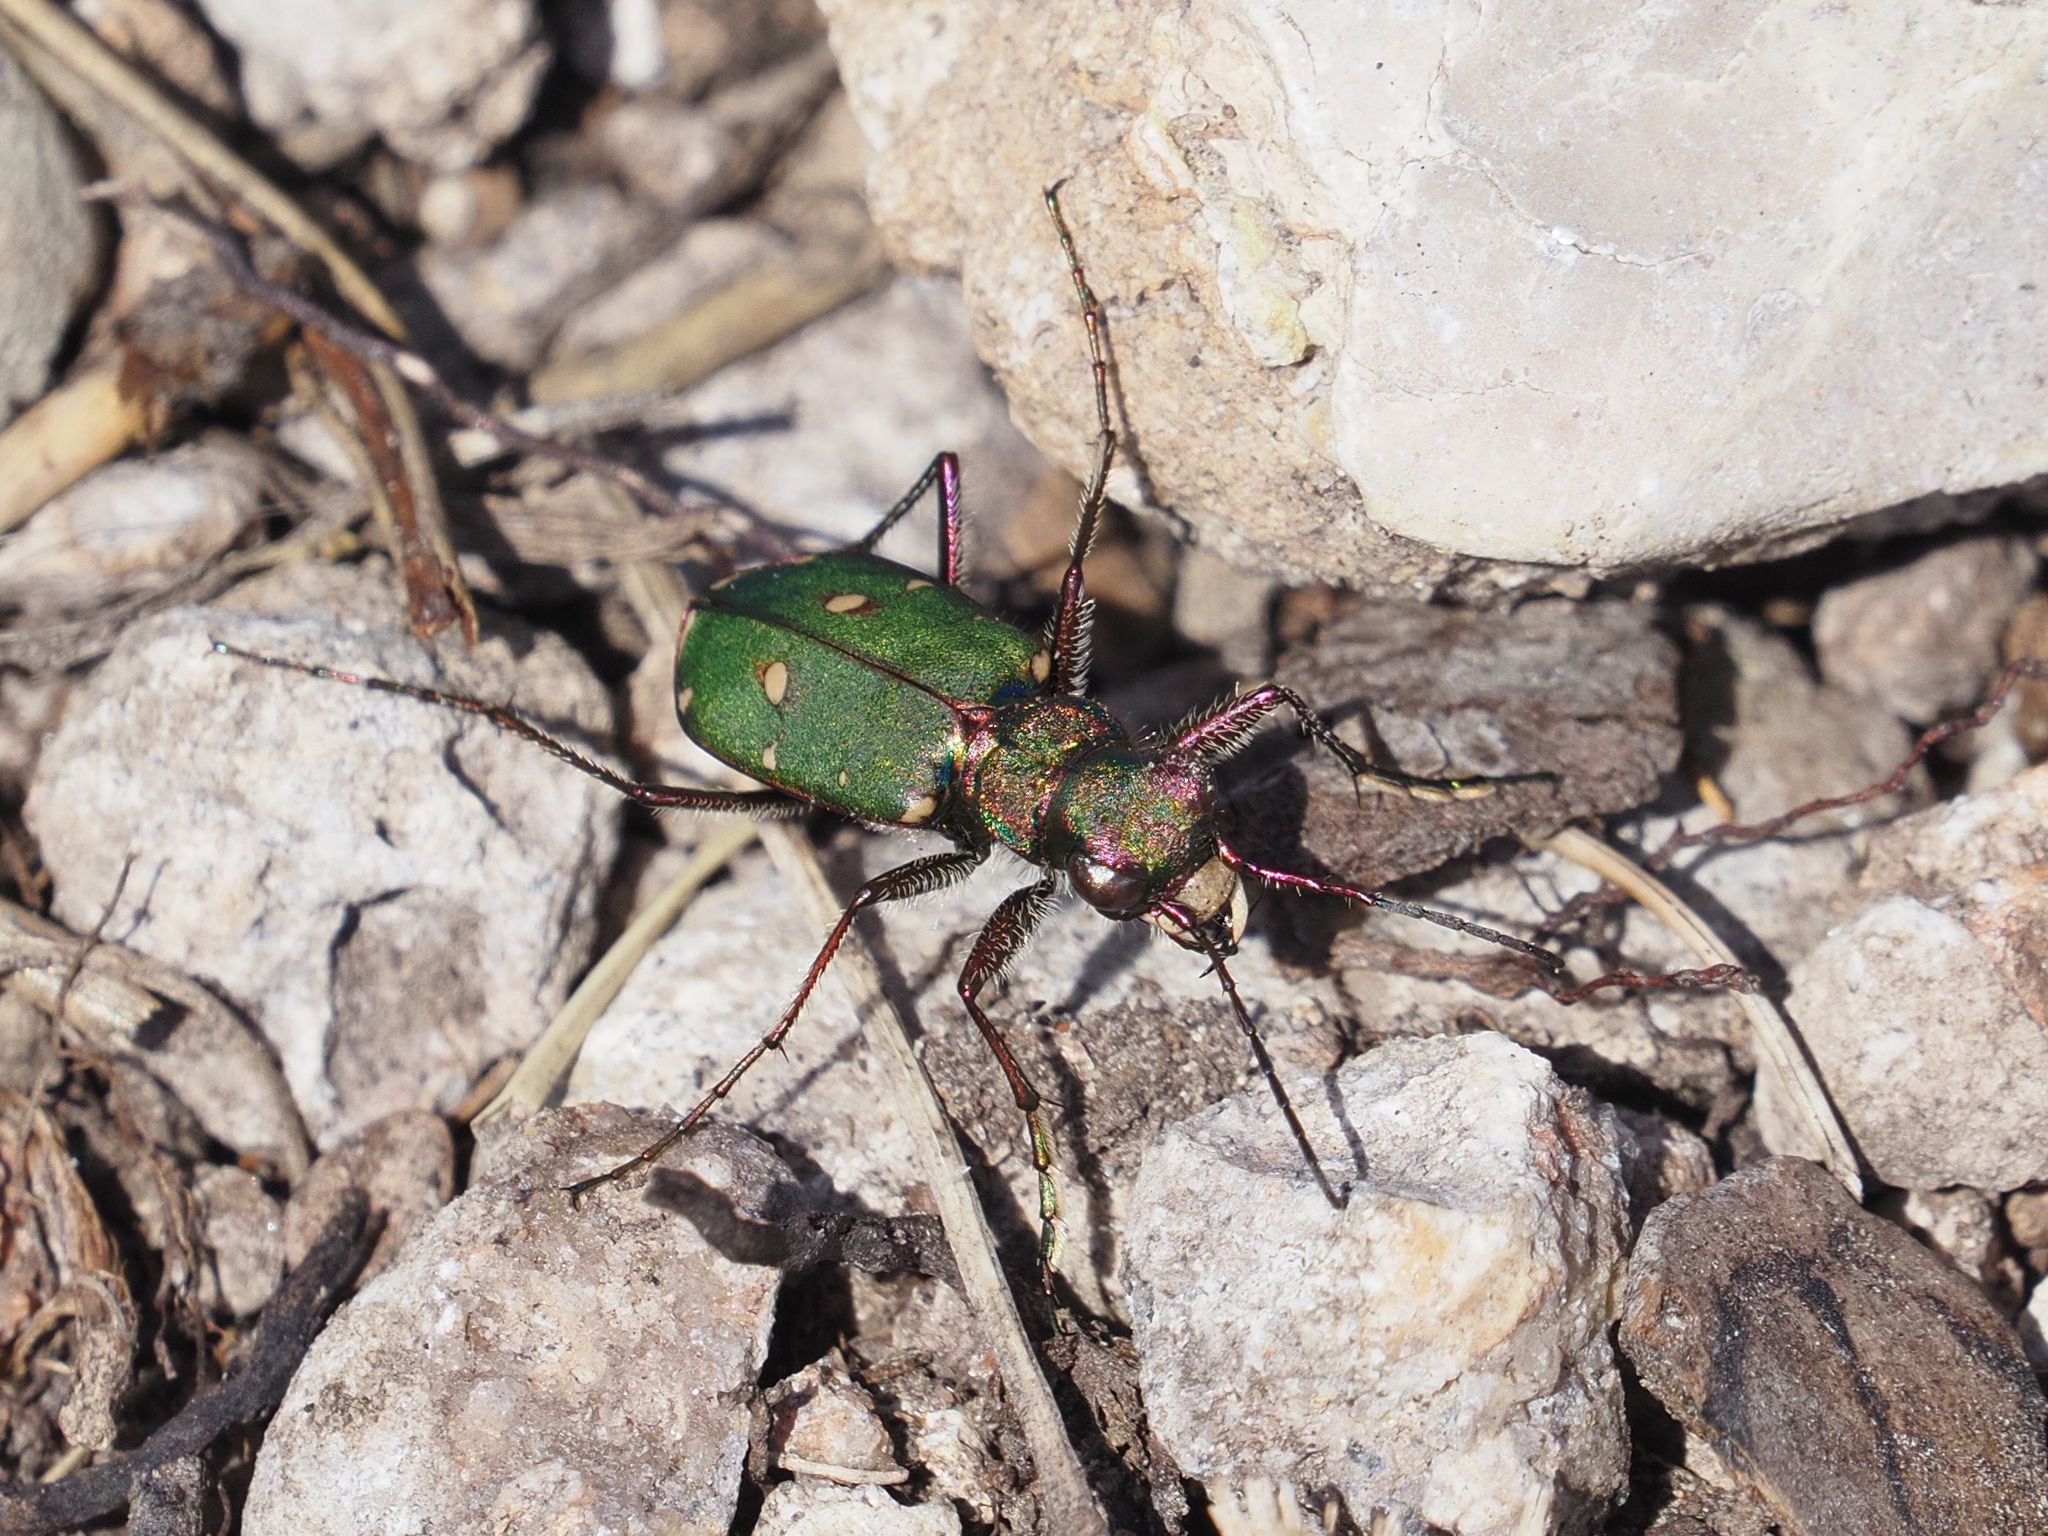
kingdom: Animalia
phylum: Arthropoda
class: Insecta
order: Coleoptera
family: Carabidae
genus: Cicindela
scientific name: Cicindela campestris
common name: Common tiger beetle
